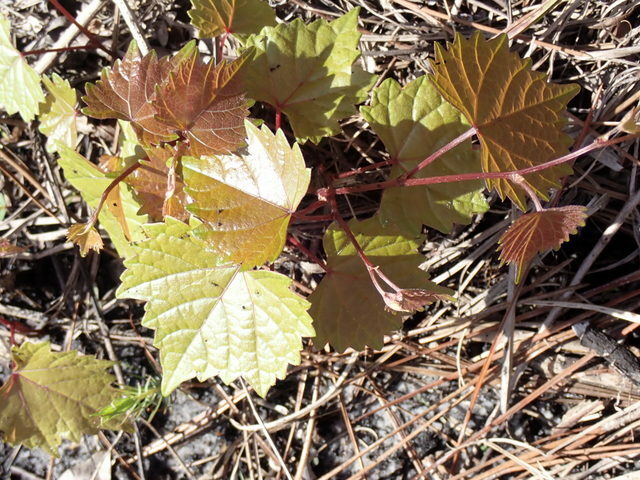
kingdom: Plantae
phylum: Tracheophyta
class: Magnoliopsida
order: Vitales
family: Vitaceae
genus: Vitis
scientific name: Vitis rotundifolia
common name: Muscadine grape
